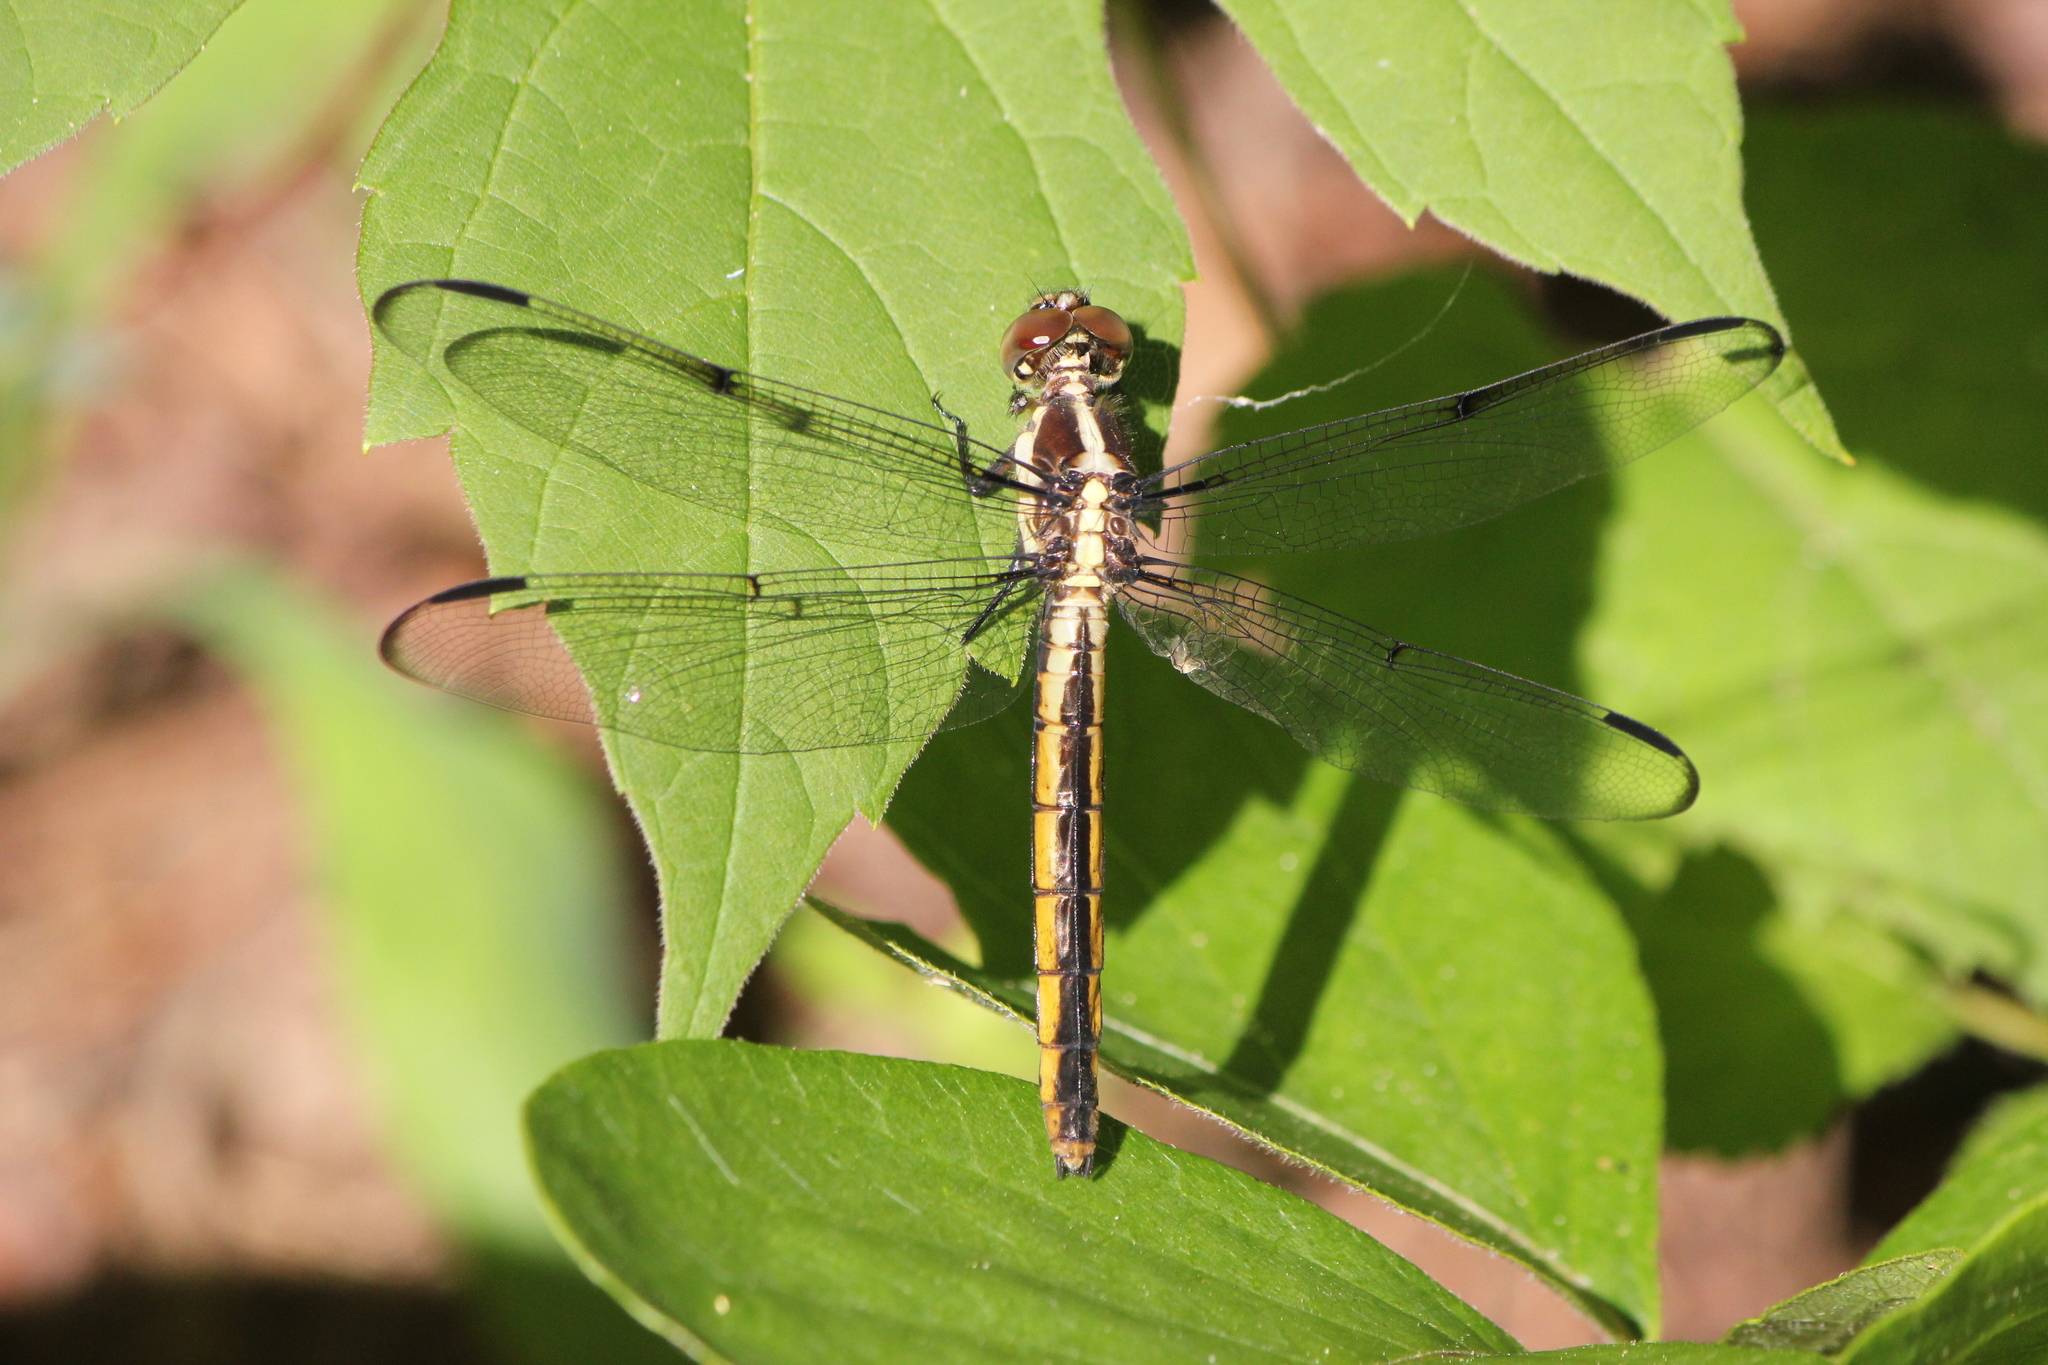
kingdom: Animalia
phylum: Arthropoda
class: Insecta
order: Odonata
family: Libellulidae
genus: Libellula
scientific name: Libellula incesta
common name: Slaty skimmer
